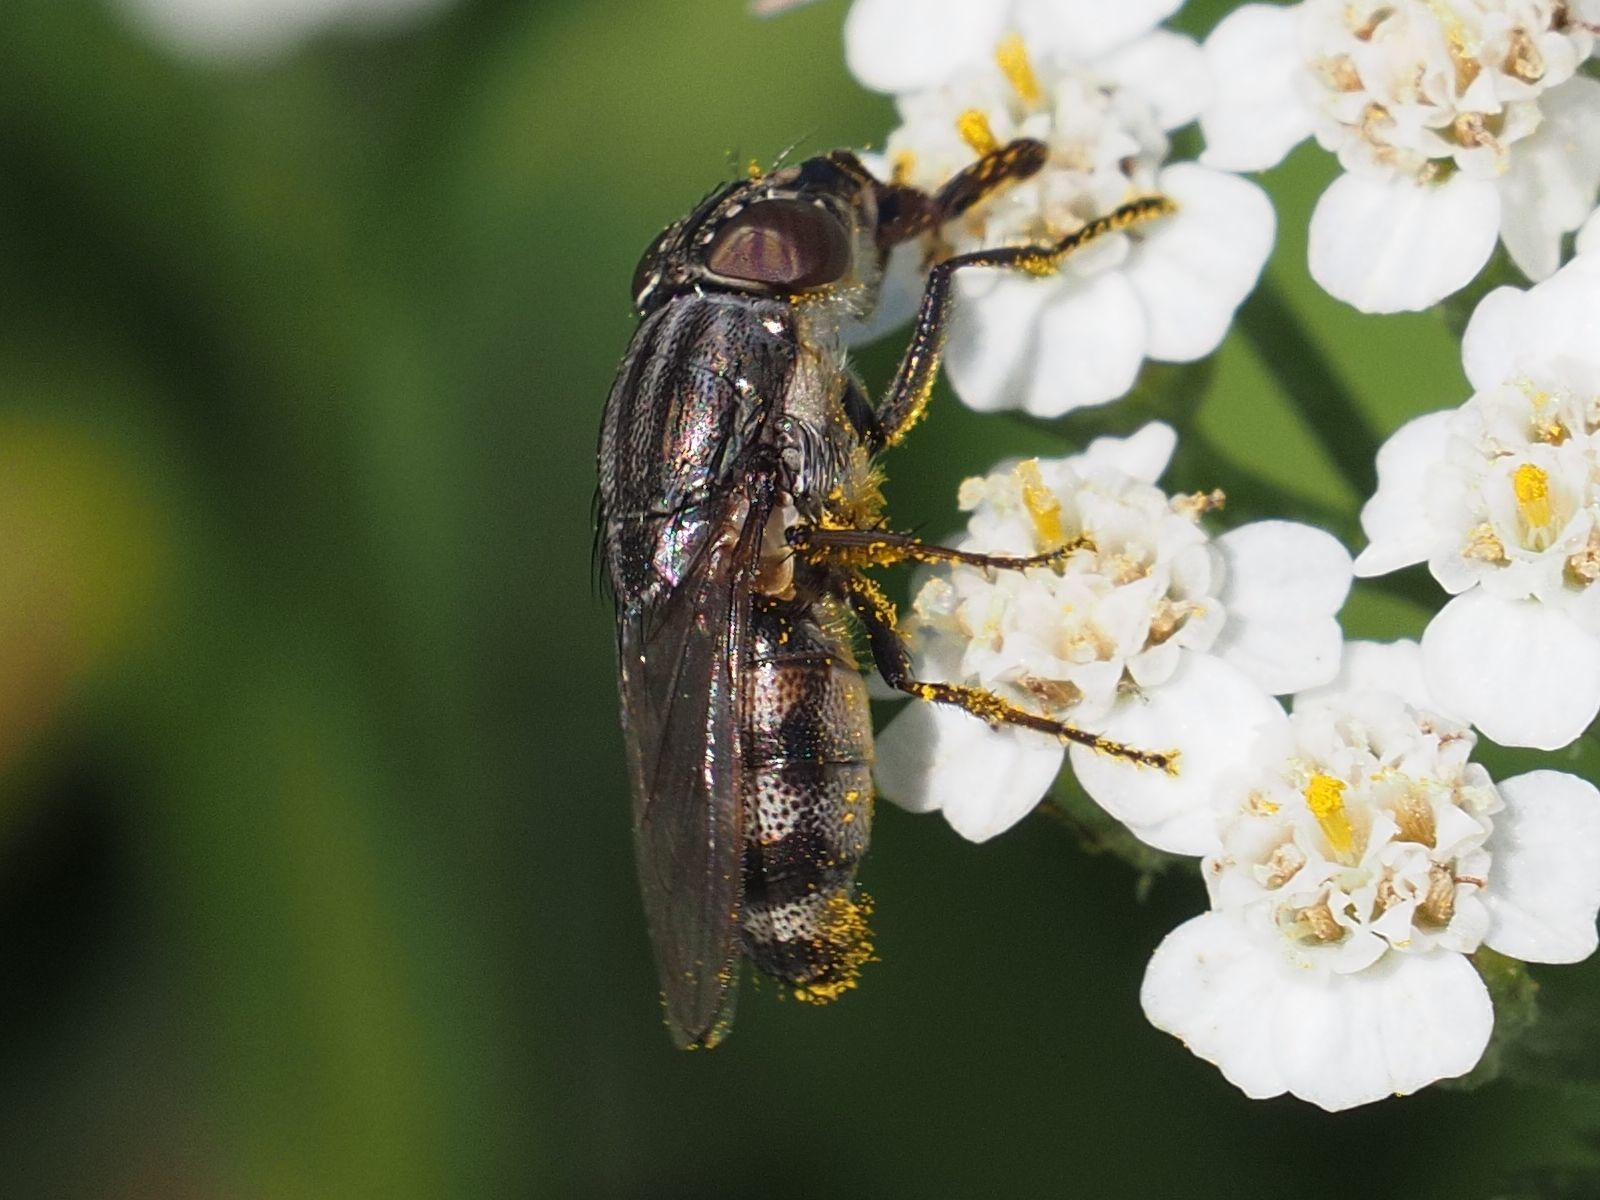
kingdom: Animalia
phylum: Arthropoda
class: Insecta
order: Diptera
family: Calliphoridae
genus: Stomorhina
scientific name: Stomorhina lunata
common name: Locust blowfly
